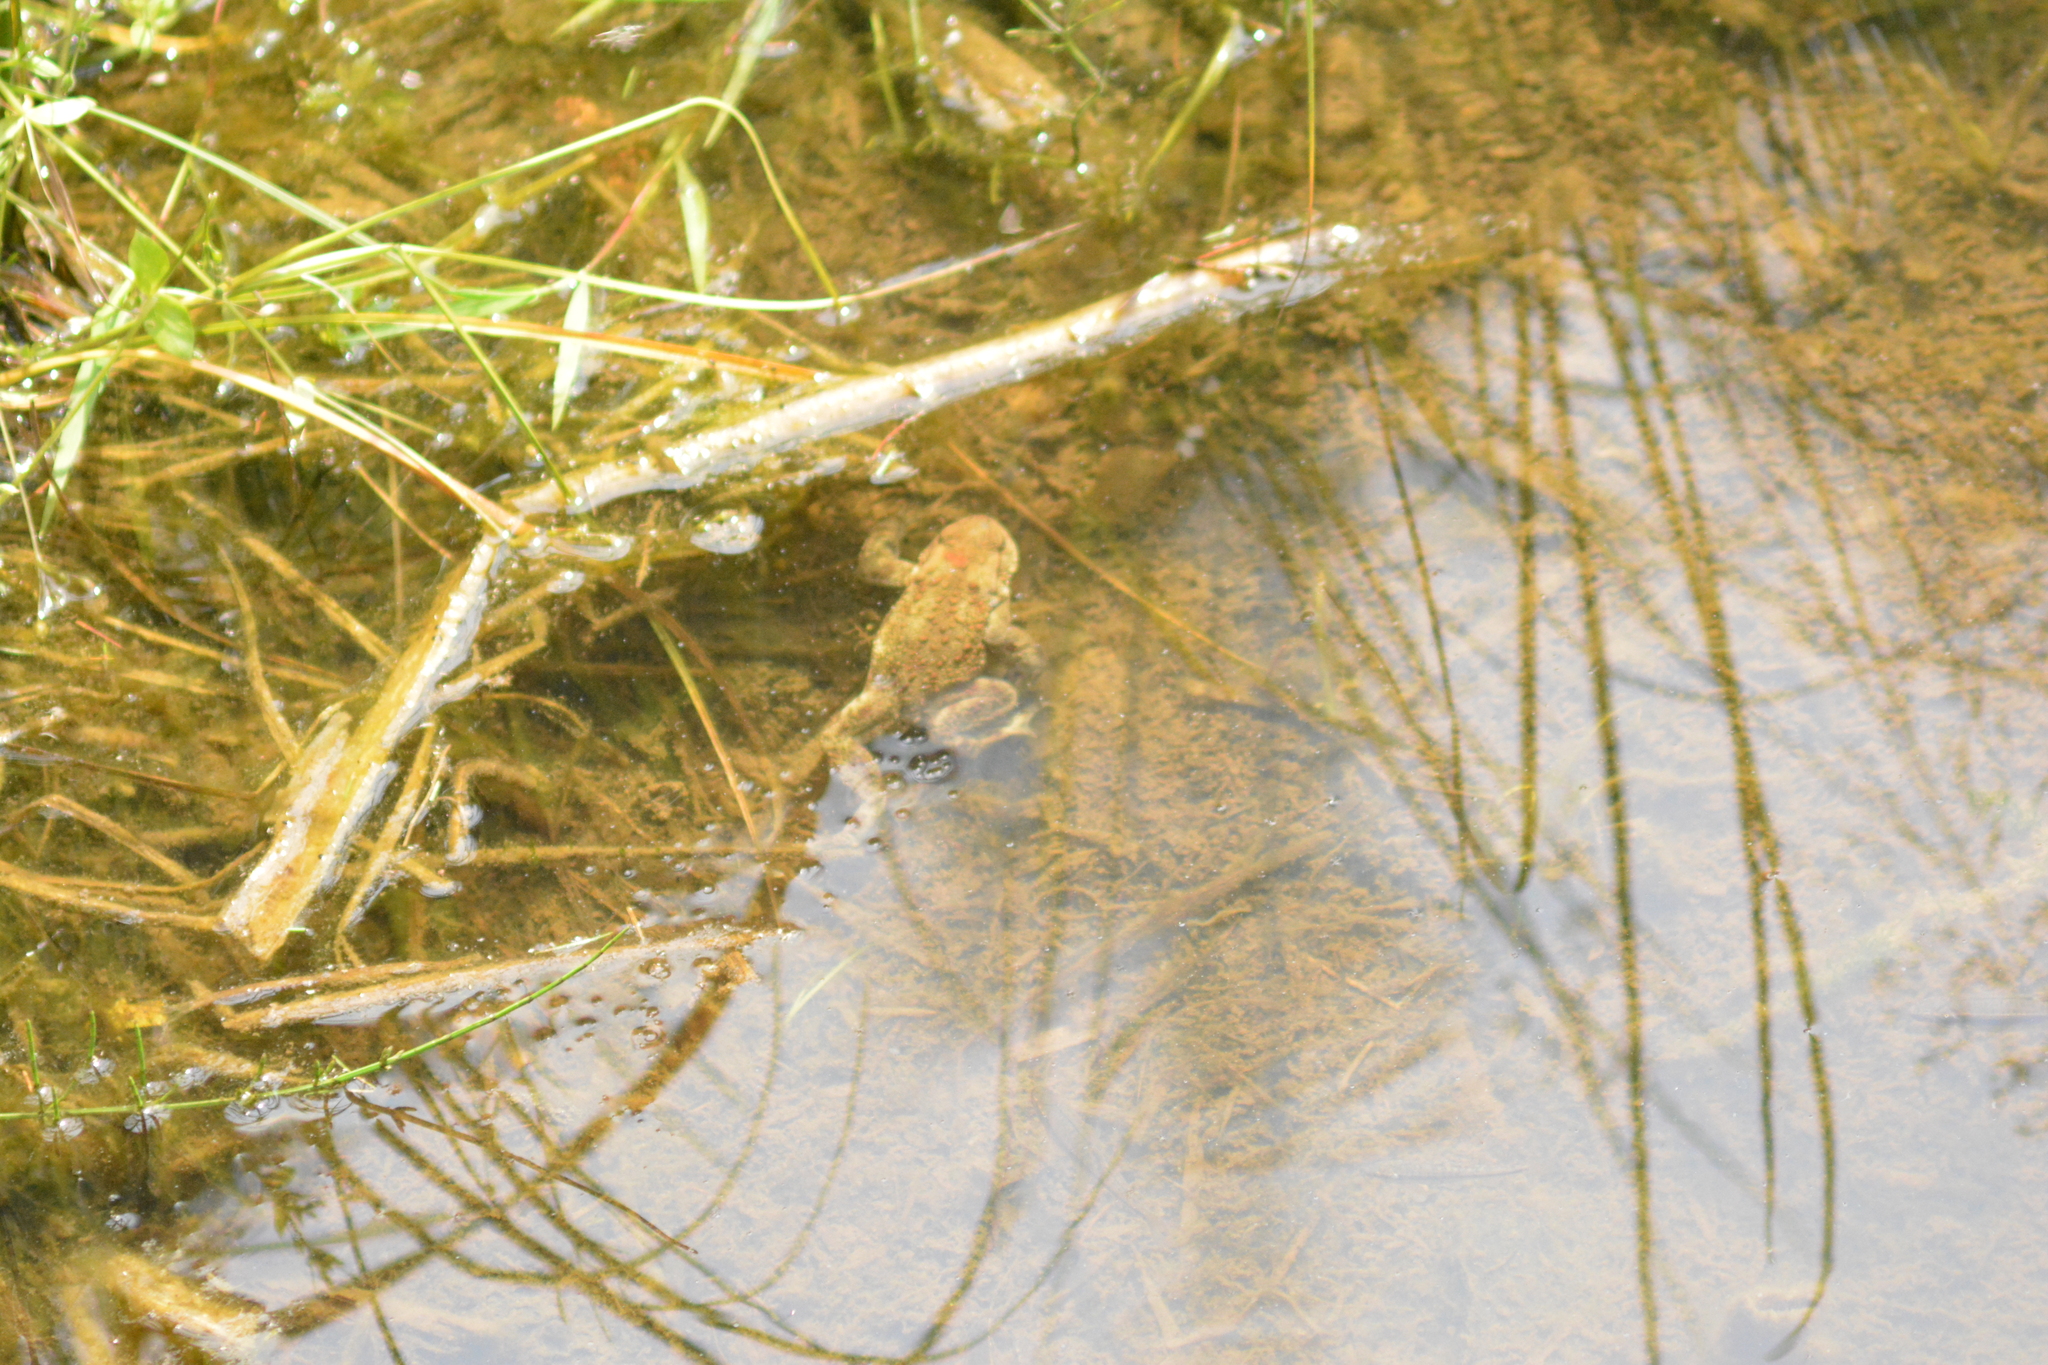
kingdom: Animalia
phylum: Chordata
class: Amphibia
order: Anura
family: Bufonidae
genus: Bufo
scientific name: Bufo bufo
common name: Common toad
